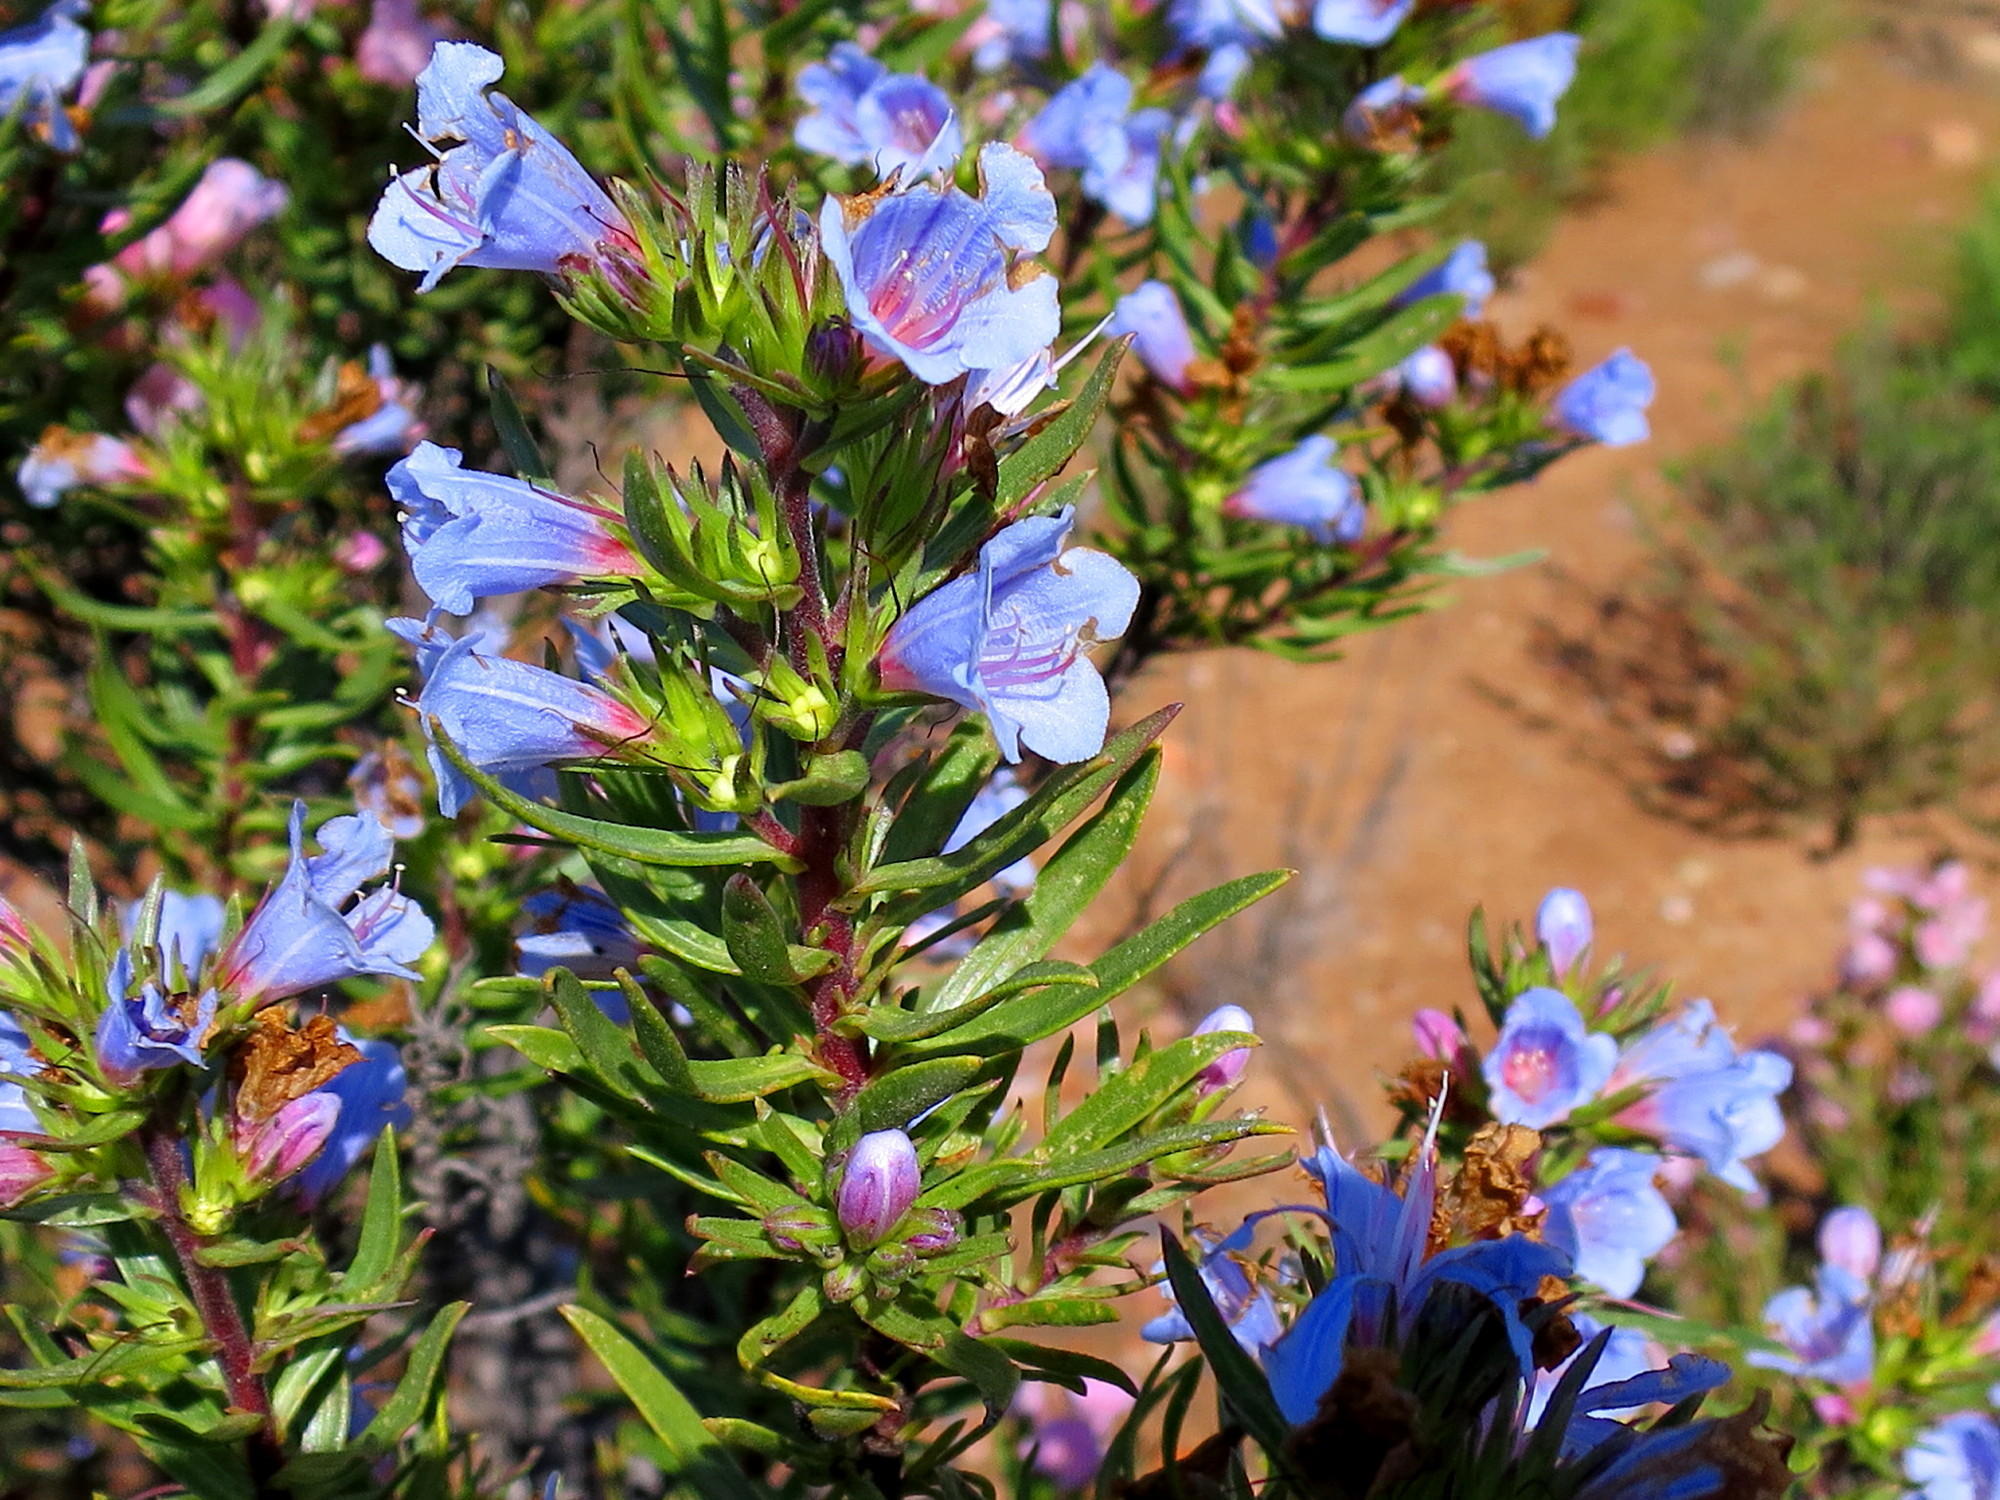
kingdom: Plantae
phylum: Tracheophyta
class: Magnoliopsida
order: Boraginales
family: Boraginaceae
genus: Lobostemon
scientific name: Lobostemon fruticosus
